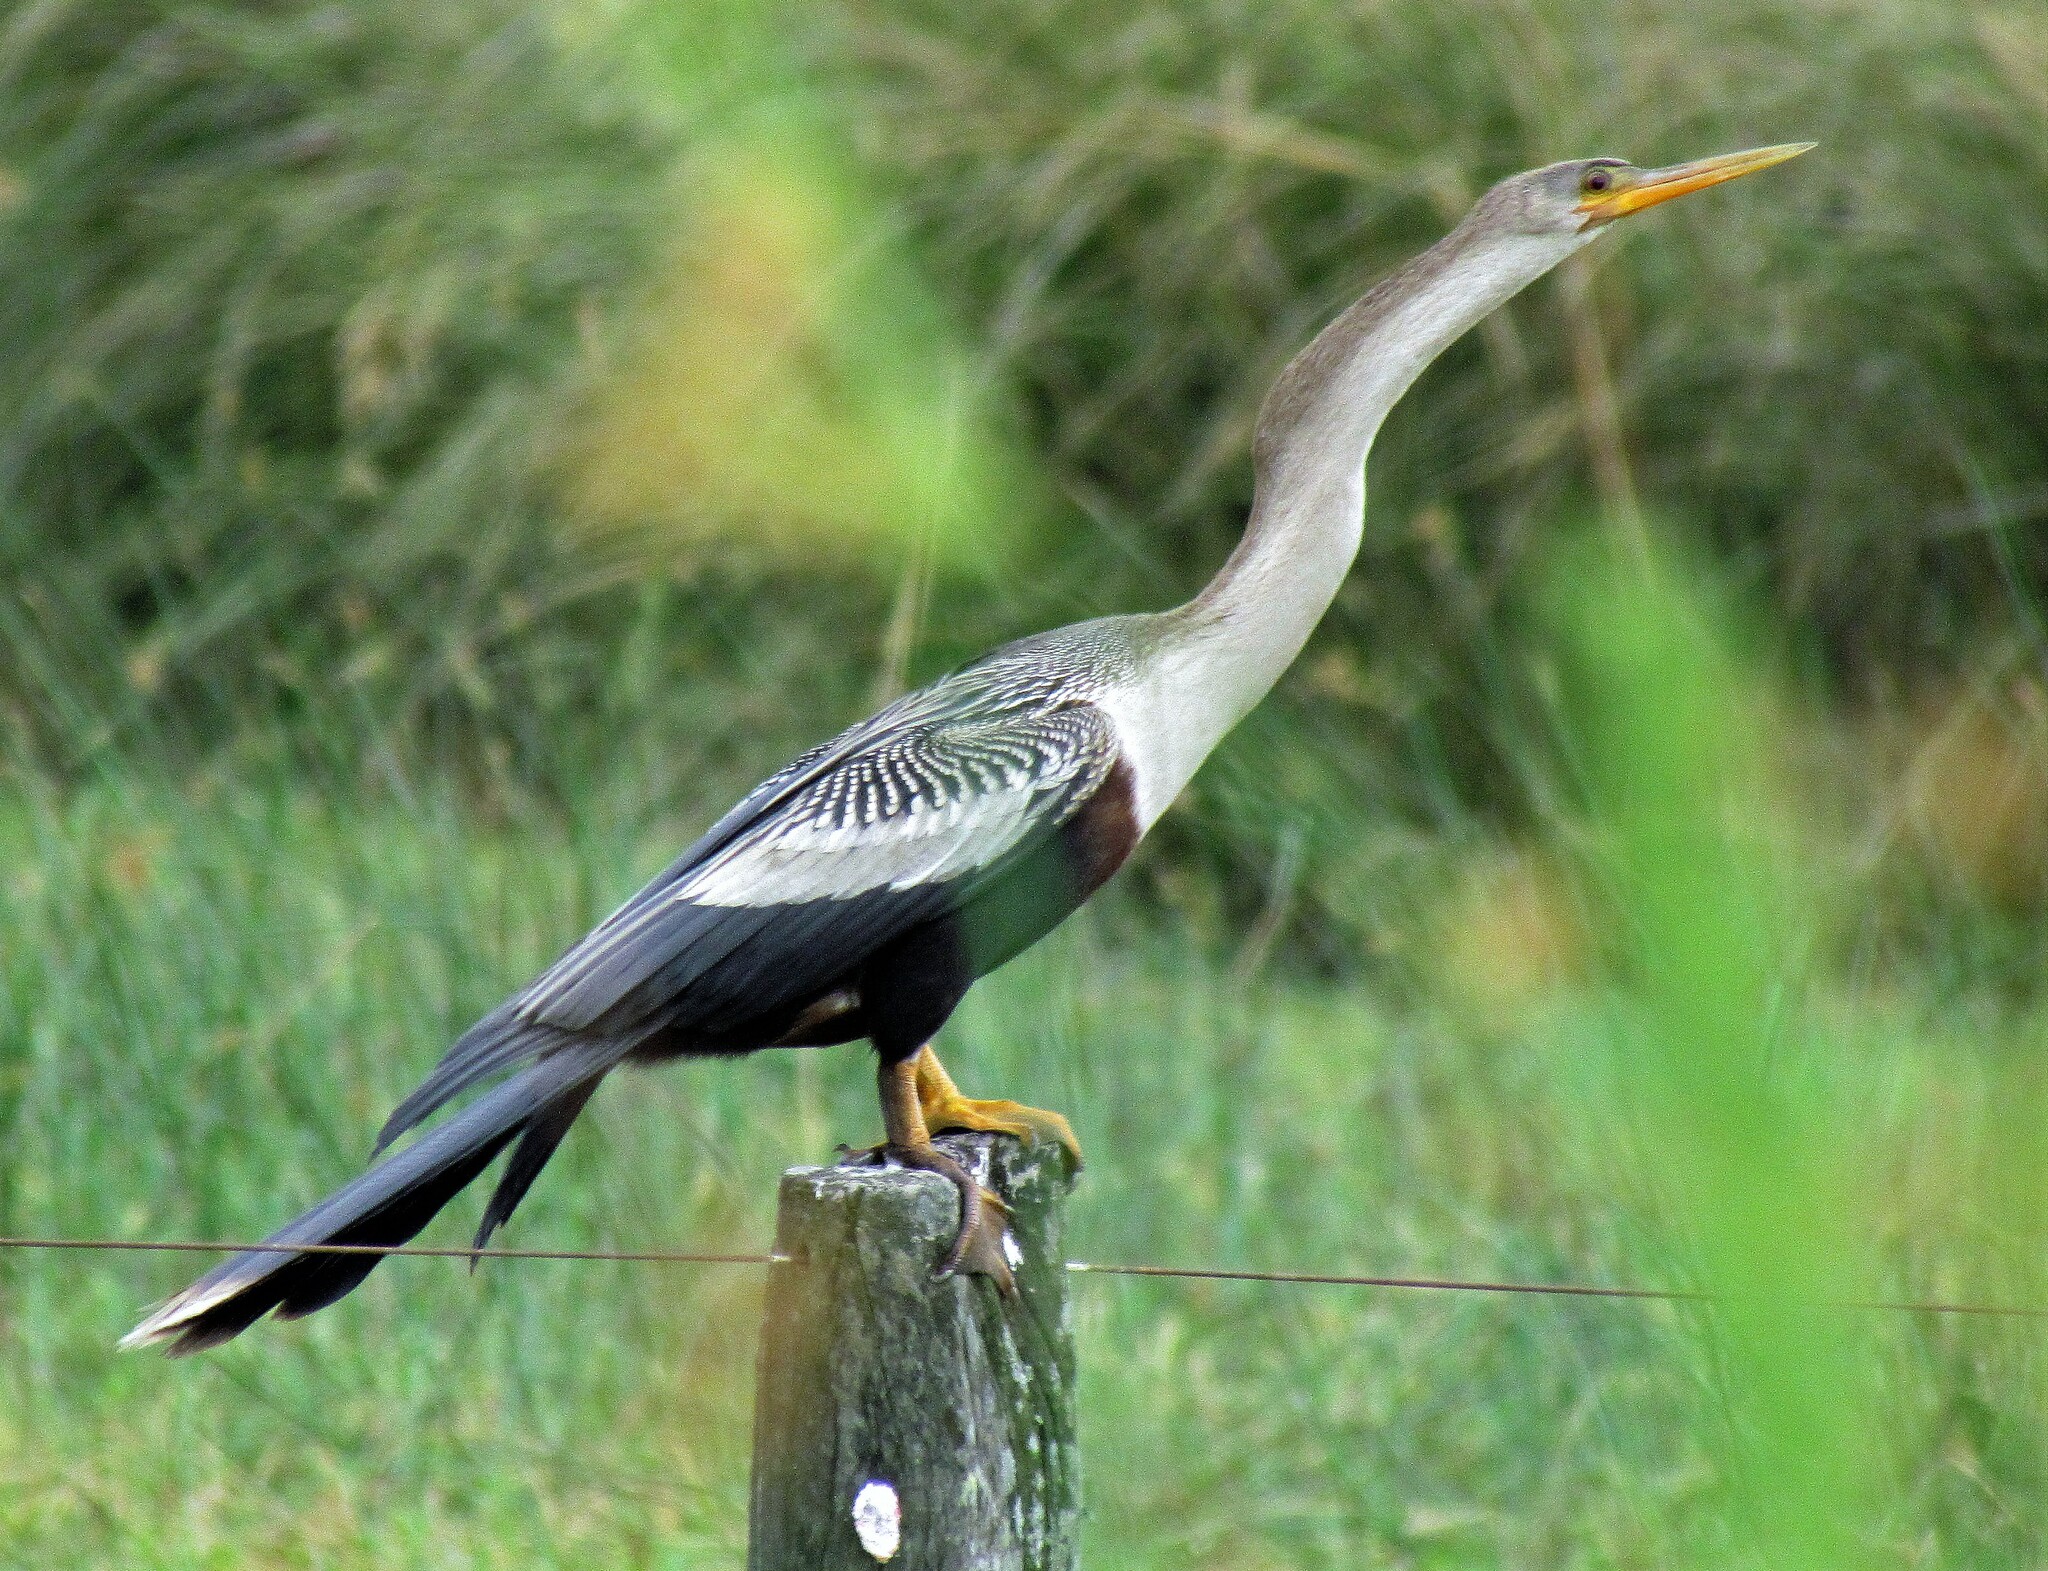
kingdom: Animalia
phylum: Chordata
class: Aves
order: Suliformes
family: Anhingidae
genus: Anhinga
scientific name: Anhinga anhinga
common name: Anhinga
